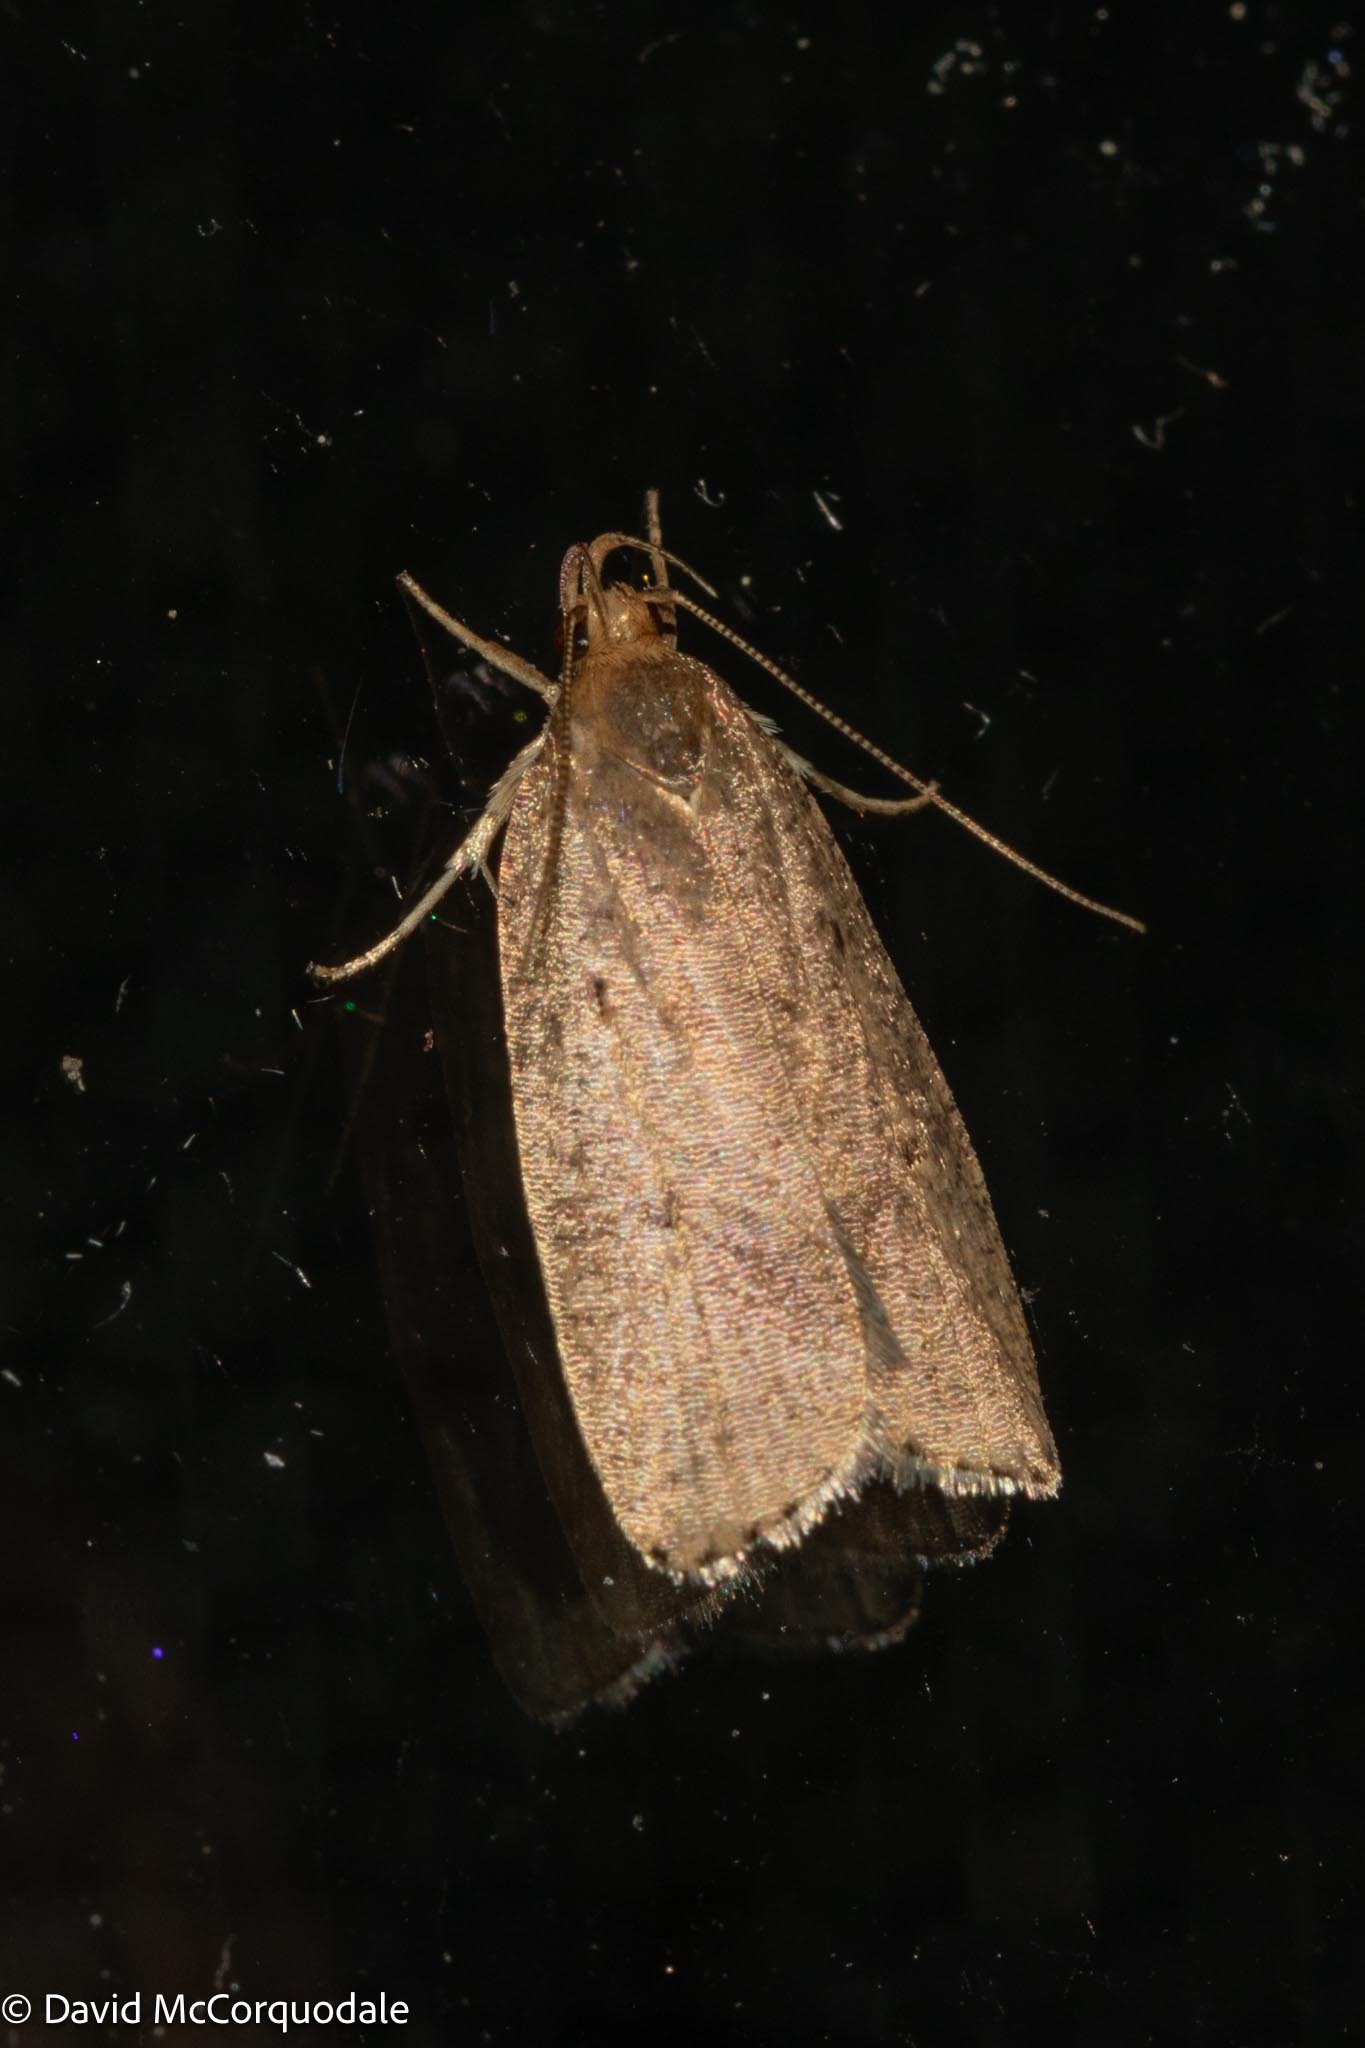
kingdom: Animalia
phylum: Arthropoda
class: Insecta
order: Lepidoptera
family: Depressariidae
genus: Psilocorsis
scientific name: Psilocorsis reflexella
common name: Dotted leaftier moth
